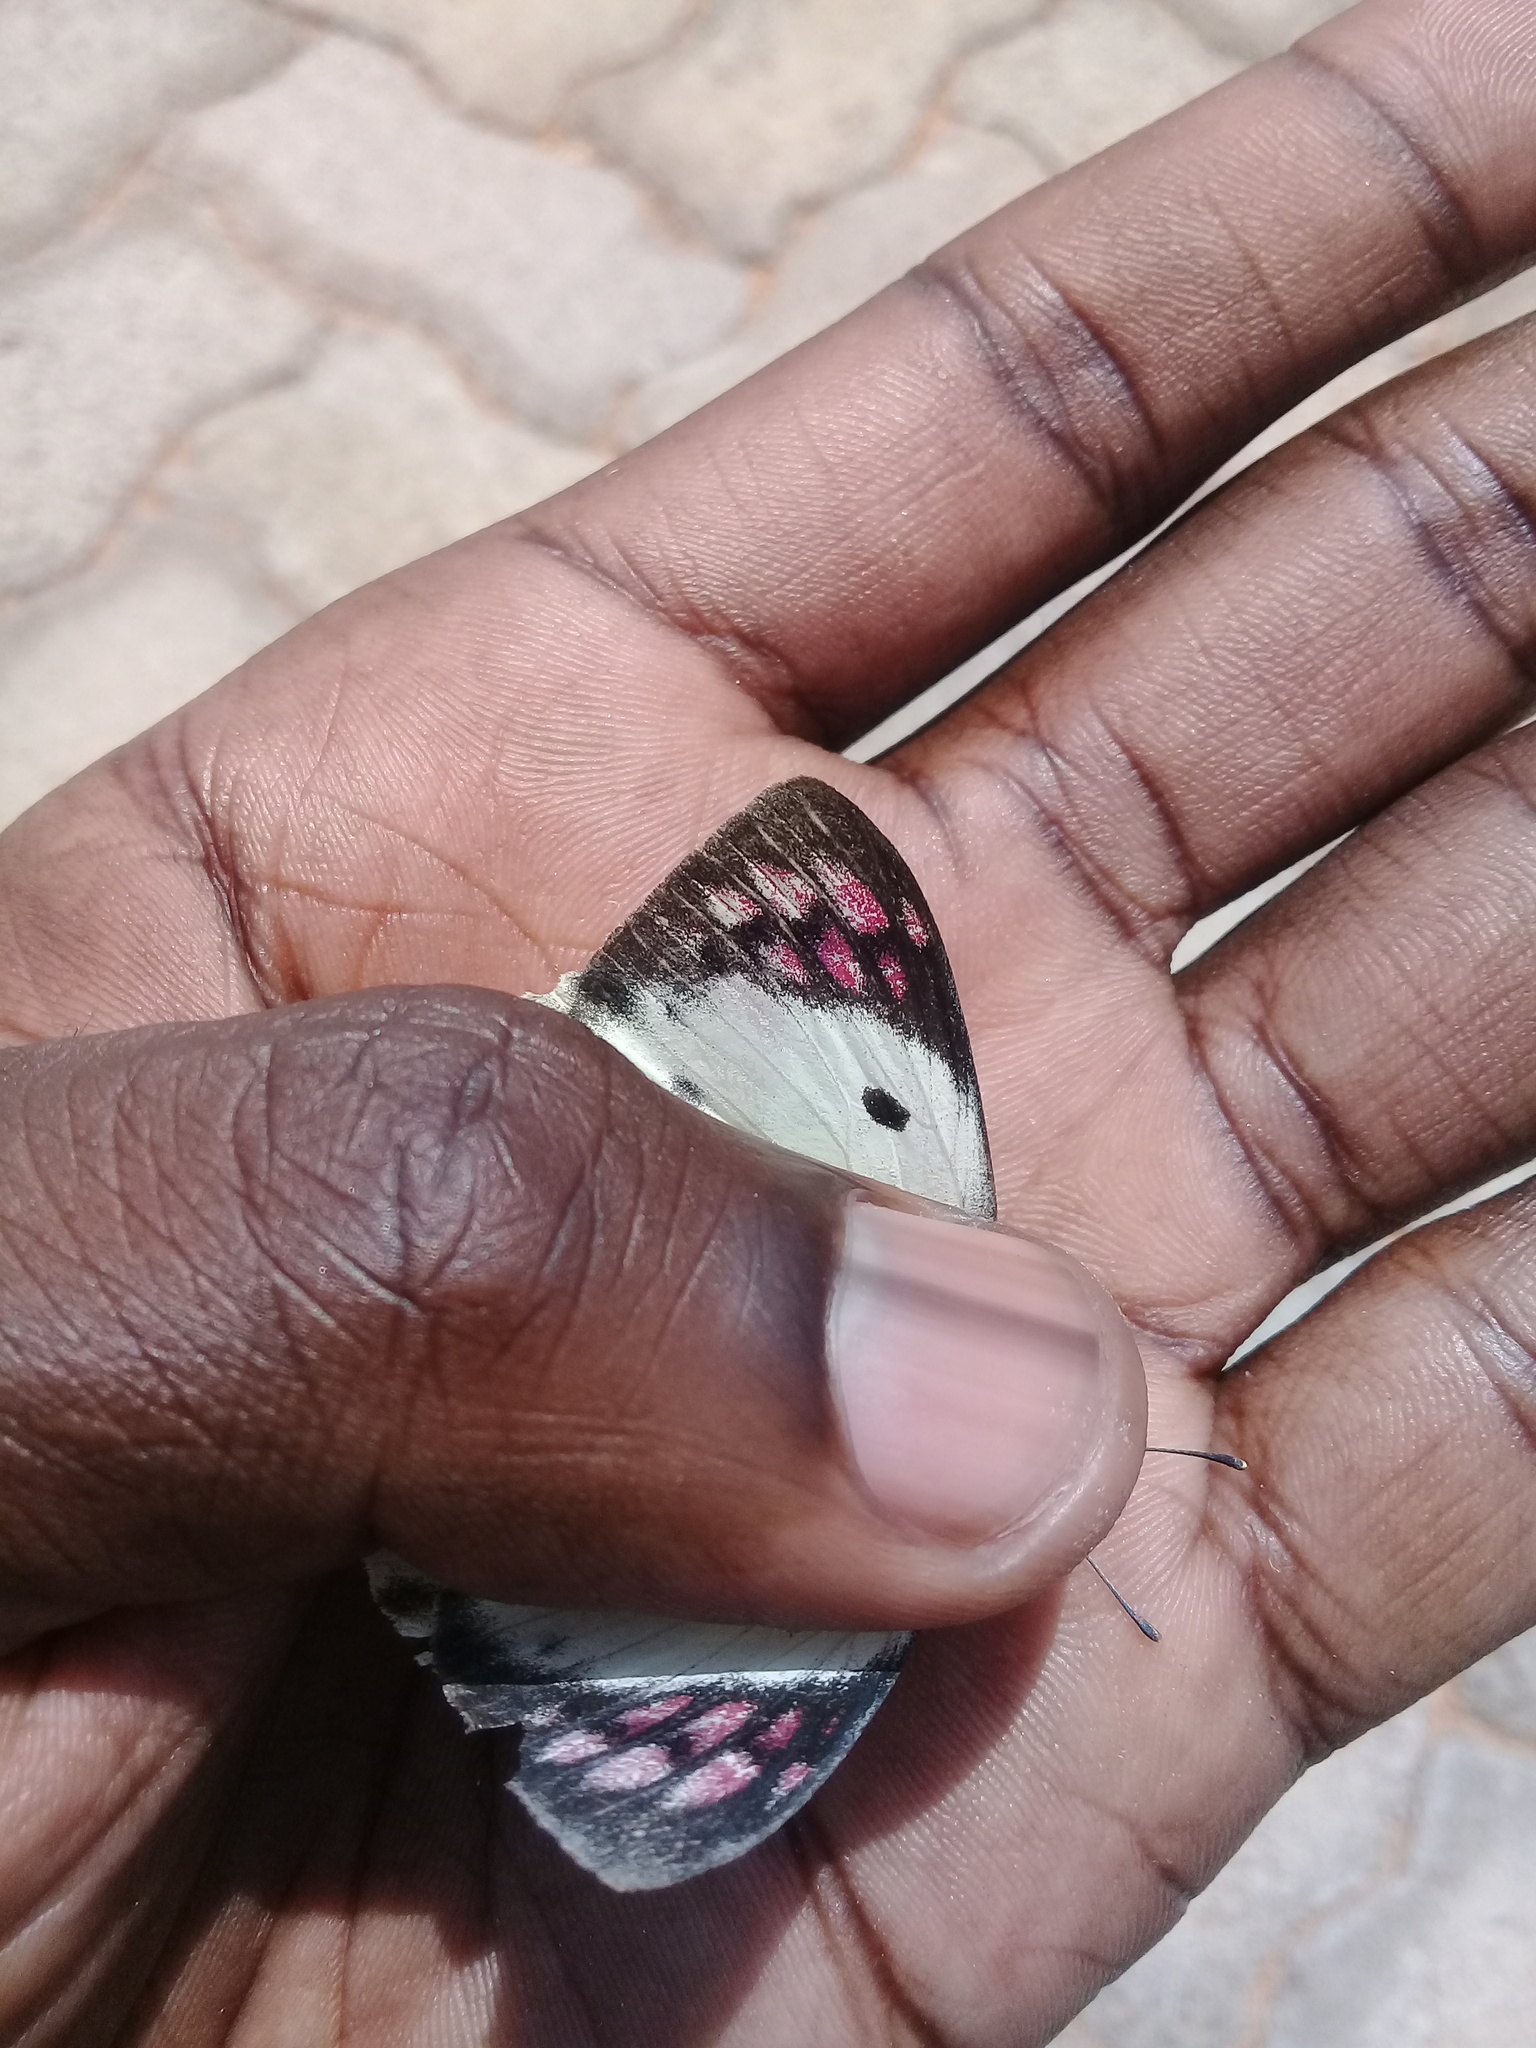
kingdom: Animalia
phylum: Arthropoda
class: Insecta
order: Lepidoptera
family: Pieridae
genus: Colotis
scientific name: Colotis regina
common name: Queen purple tip
